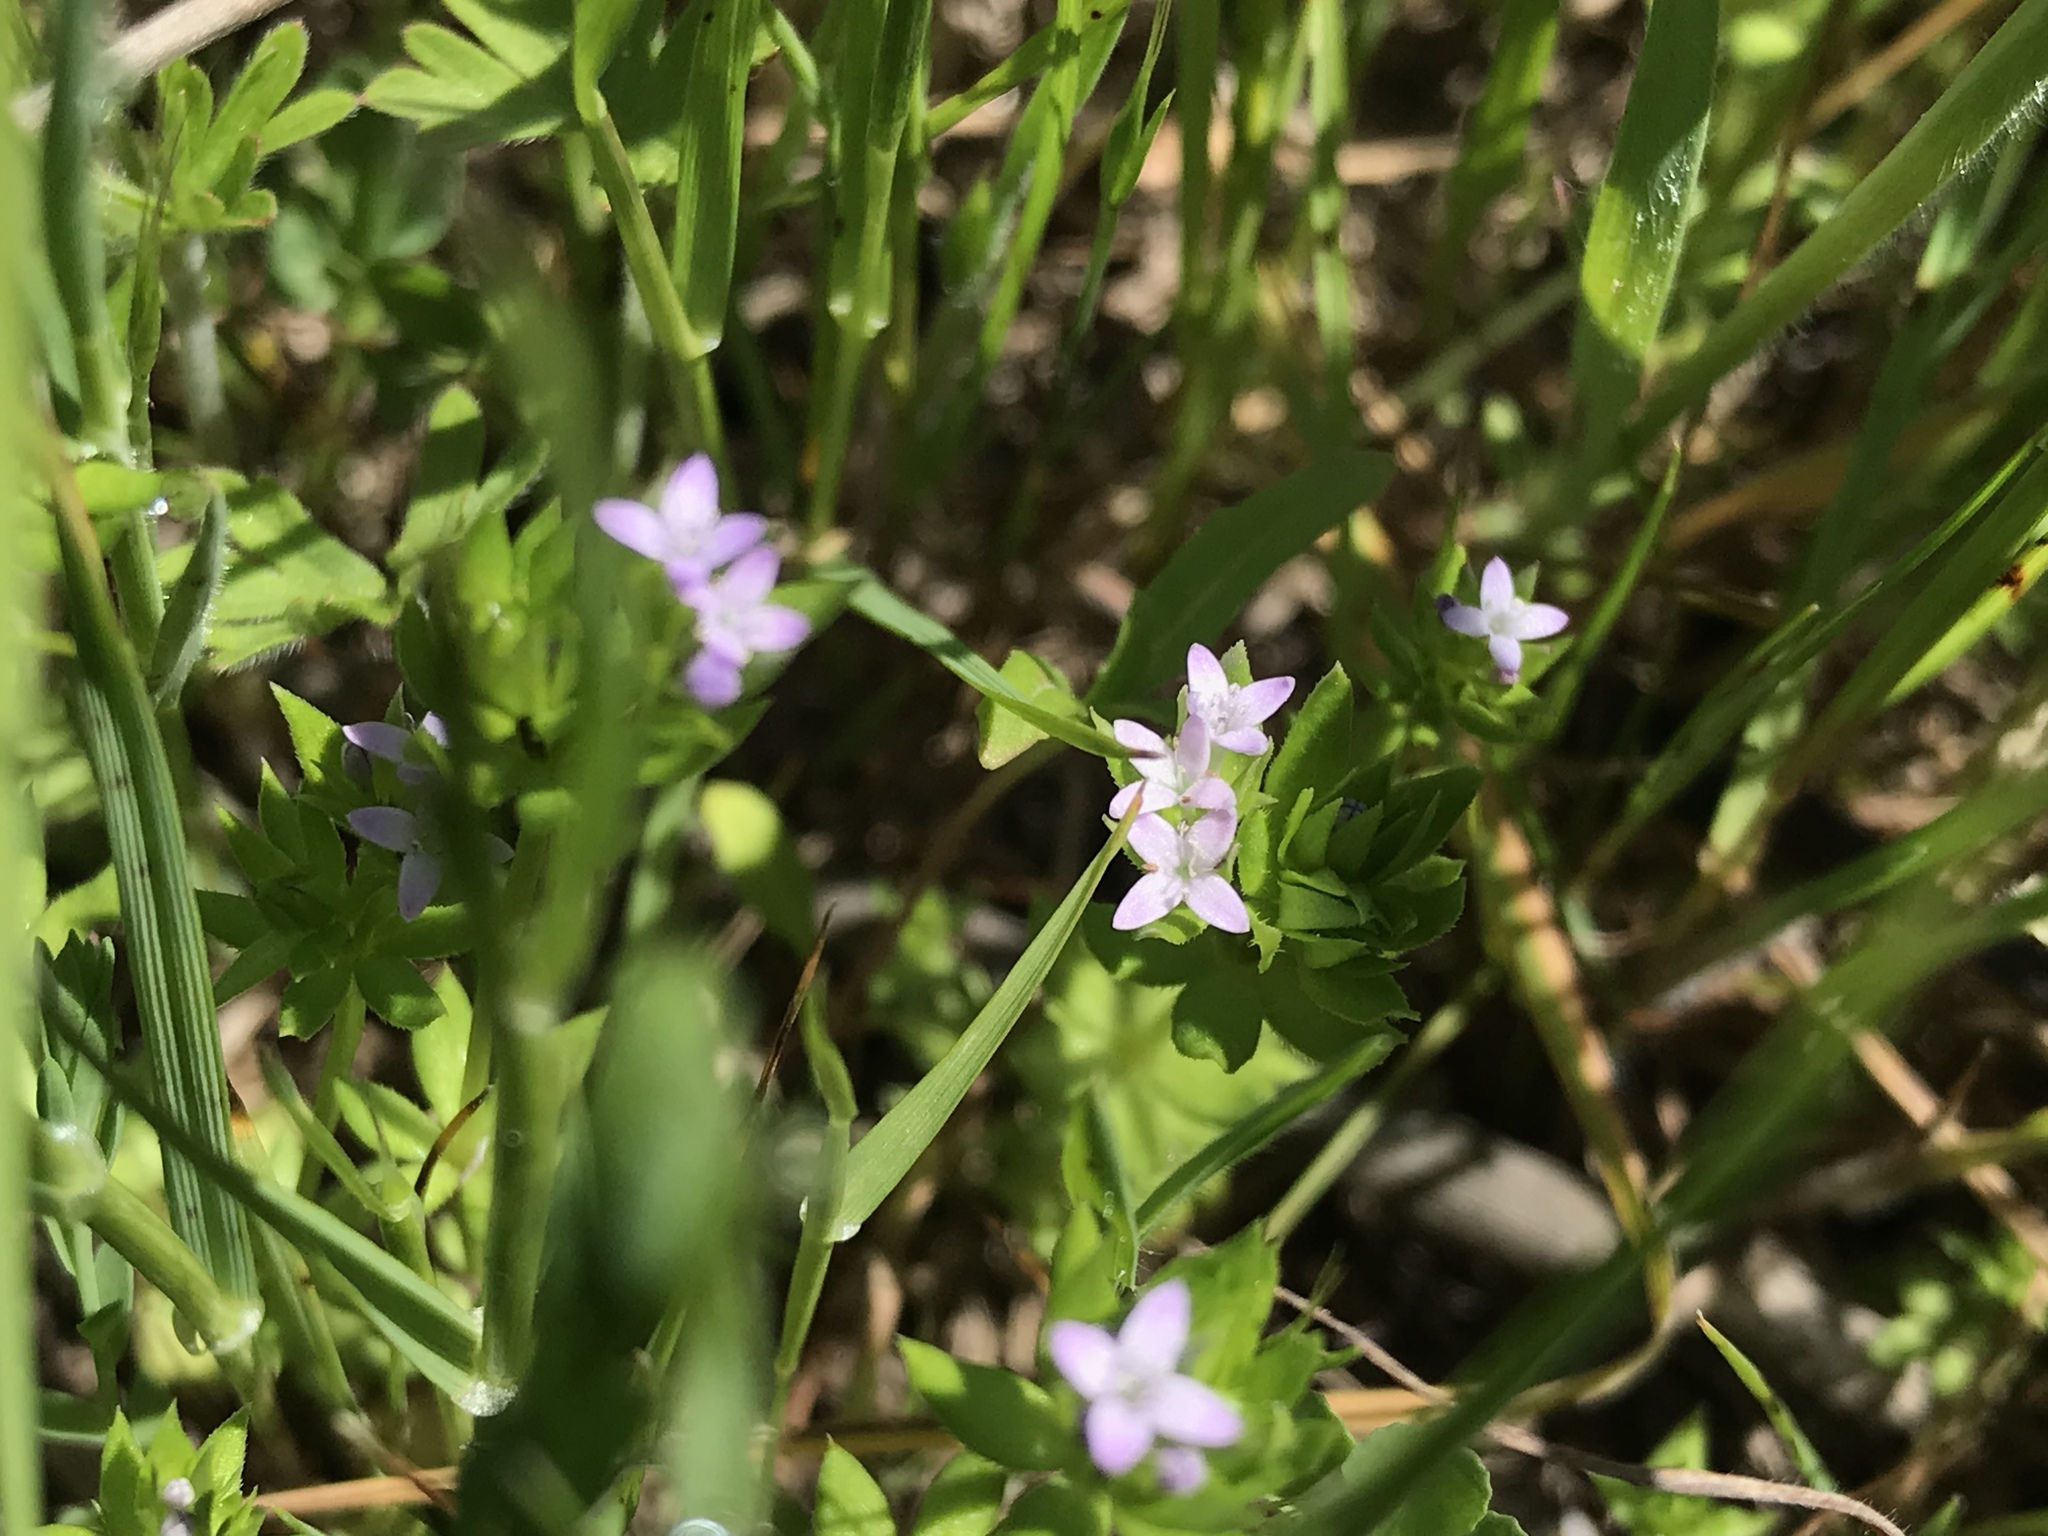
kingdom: Plantae
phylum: Tracheophyta
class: Magnoliopsida
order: Gentianales
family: Rubiaceae
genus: Sherardia
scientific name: Sherardia arvensis
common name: Field madder
